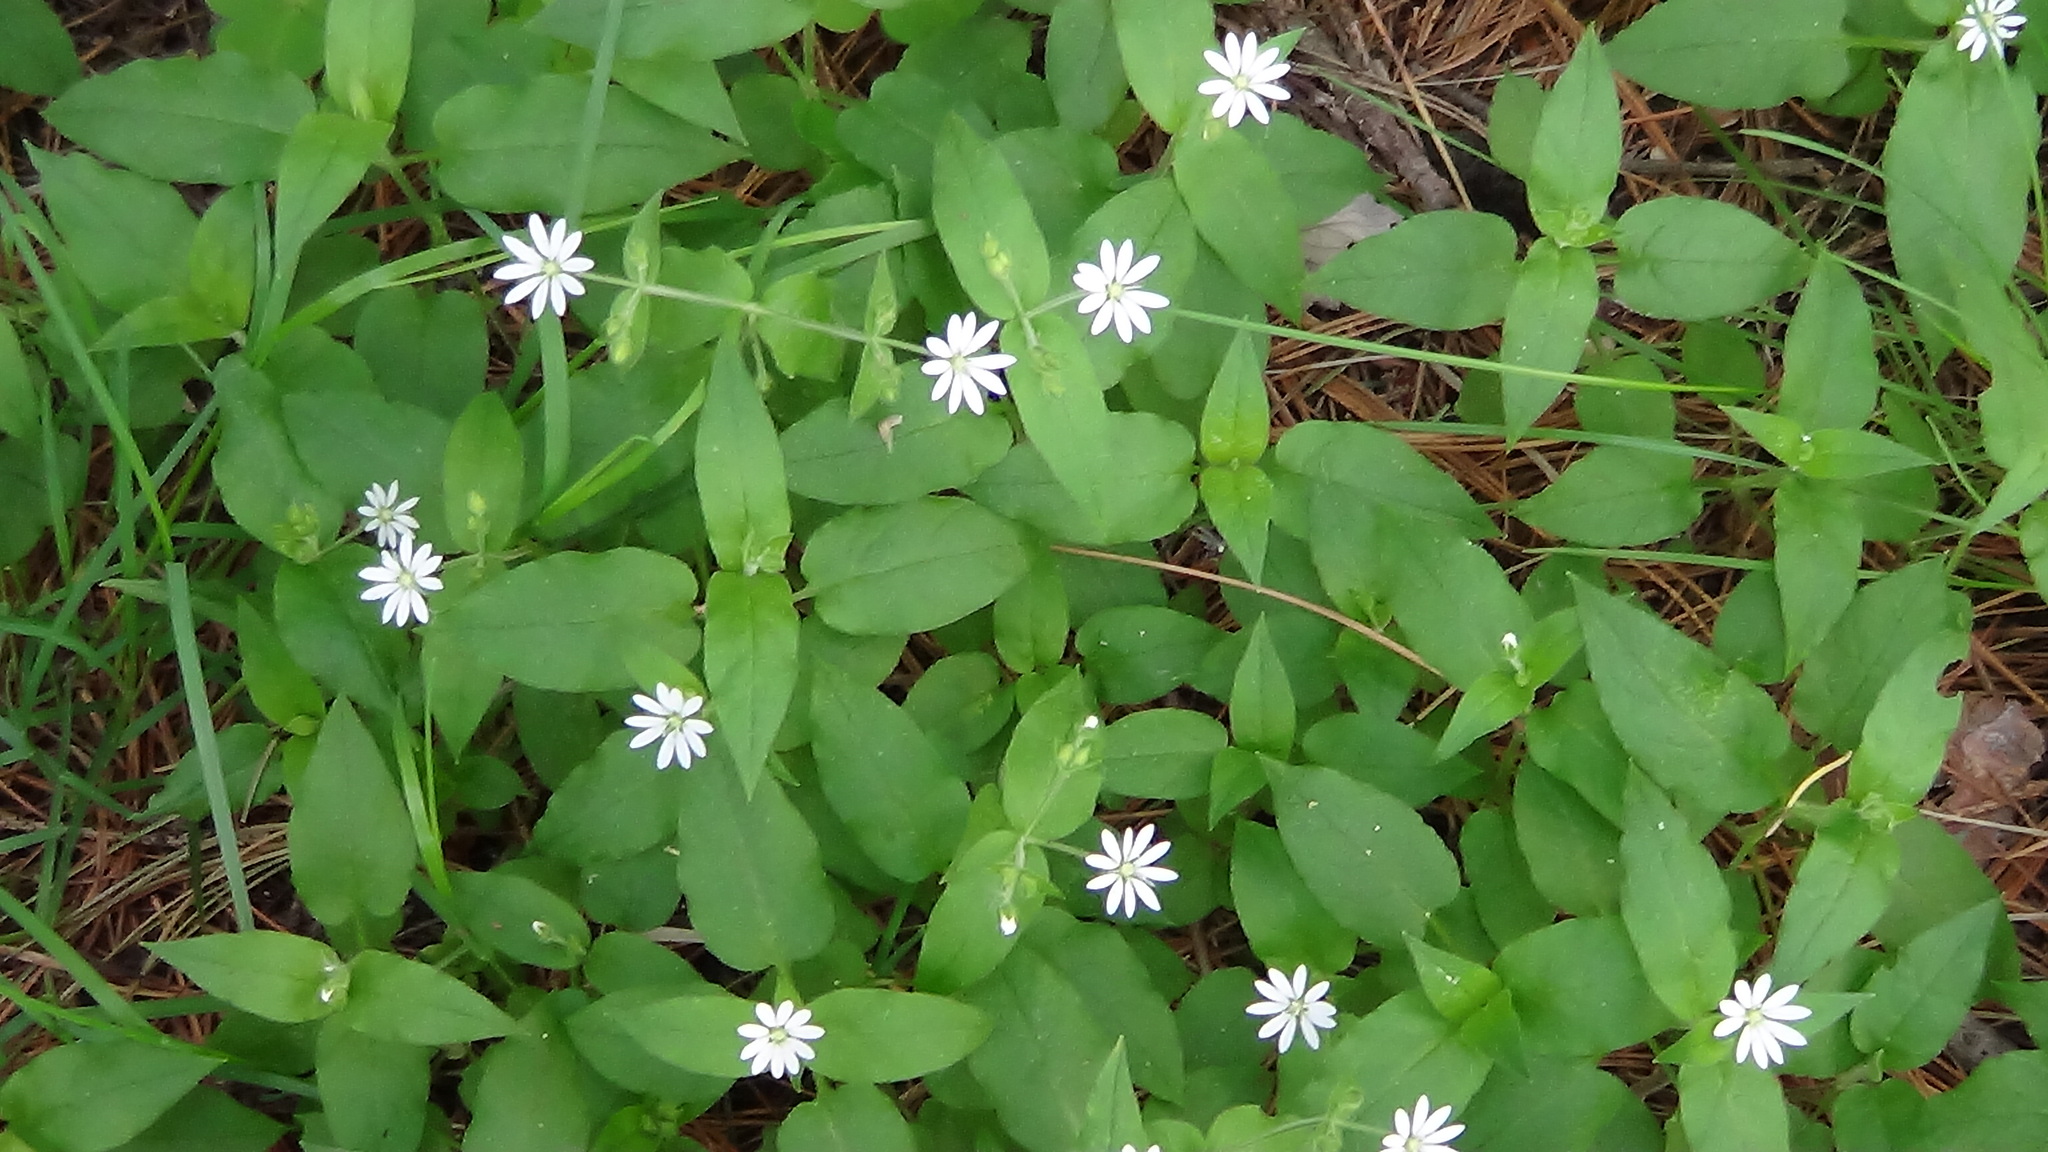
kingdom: Plantae
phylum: Tracheophyta
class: Magnoliopsida
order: Caryophyllales
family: Caryophyllaceae
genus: Stellaria
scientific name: Stellaria bungeana
